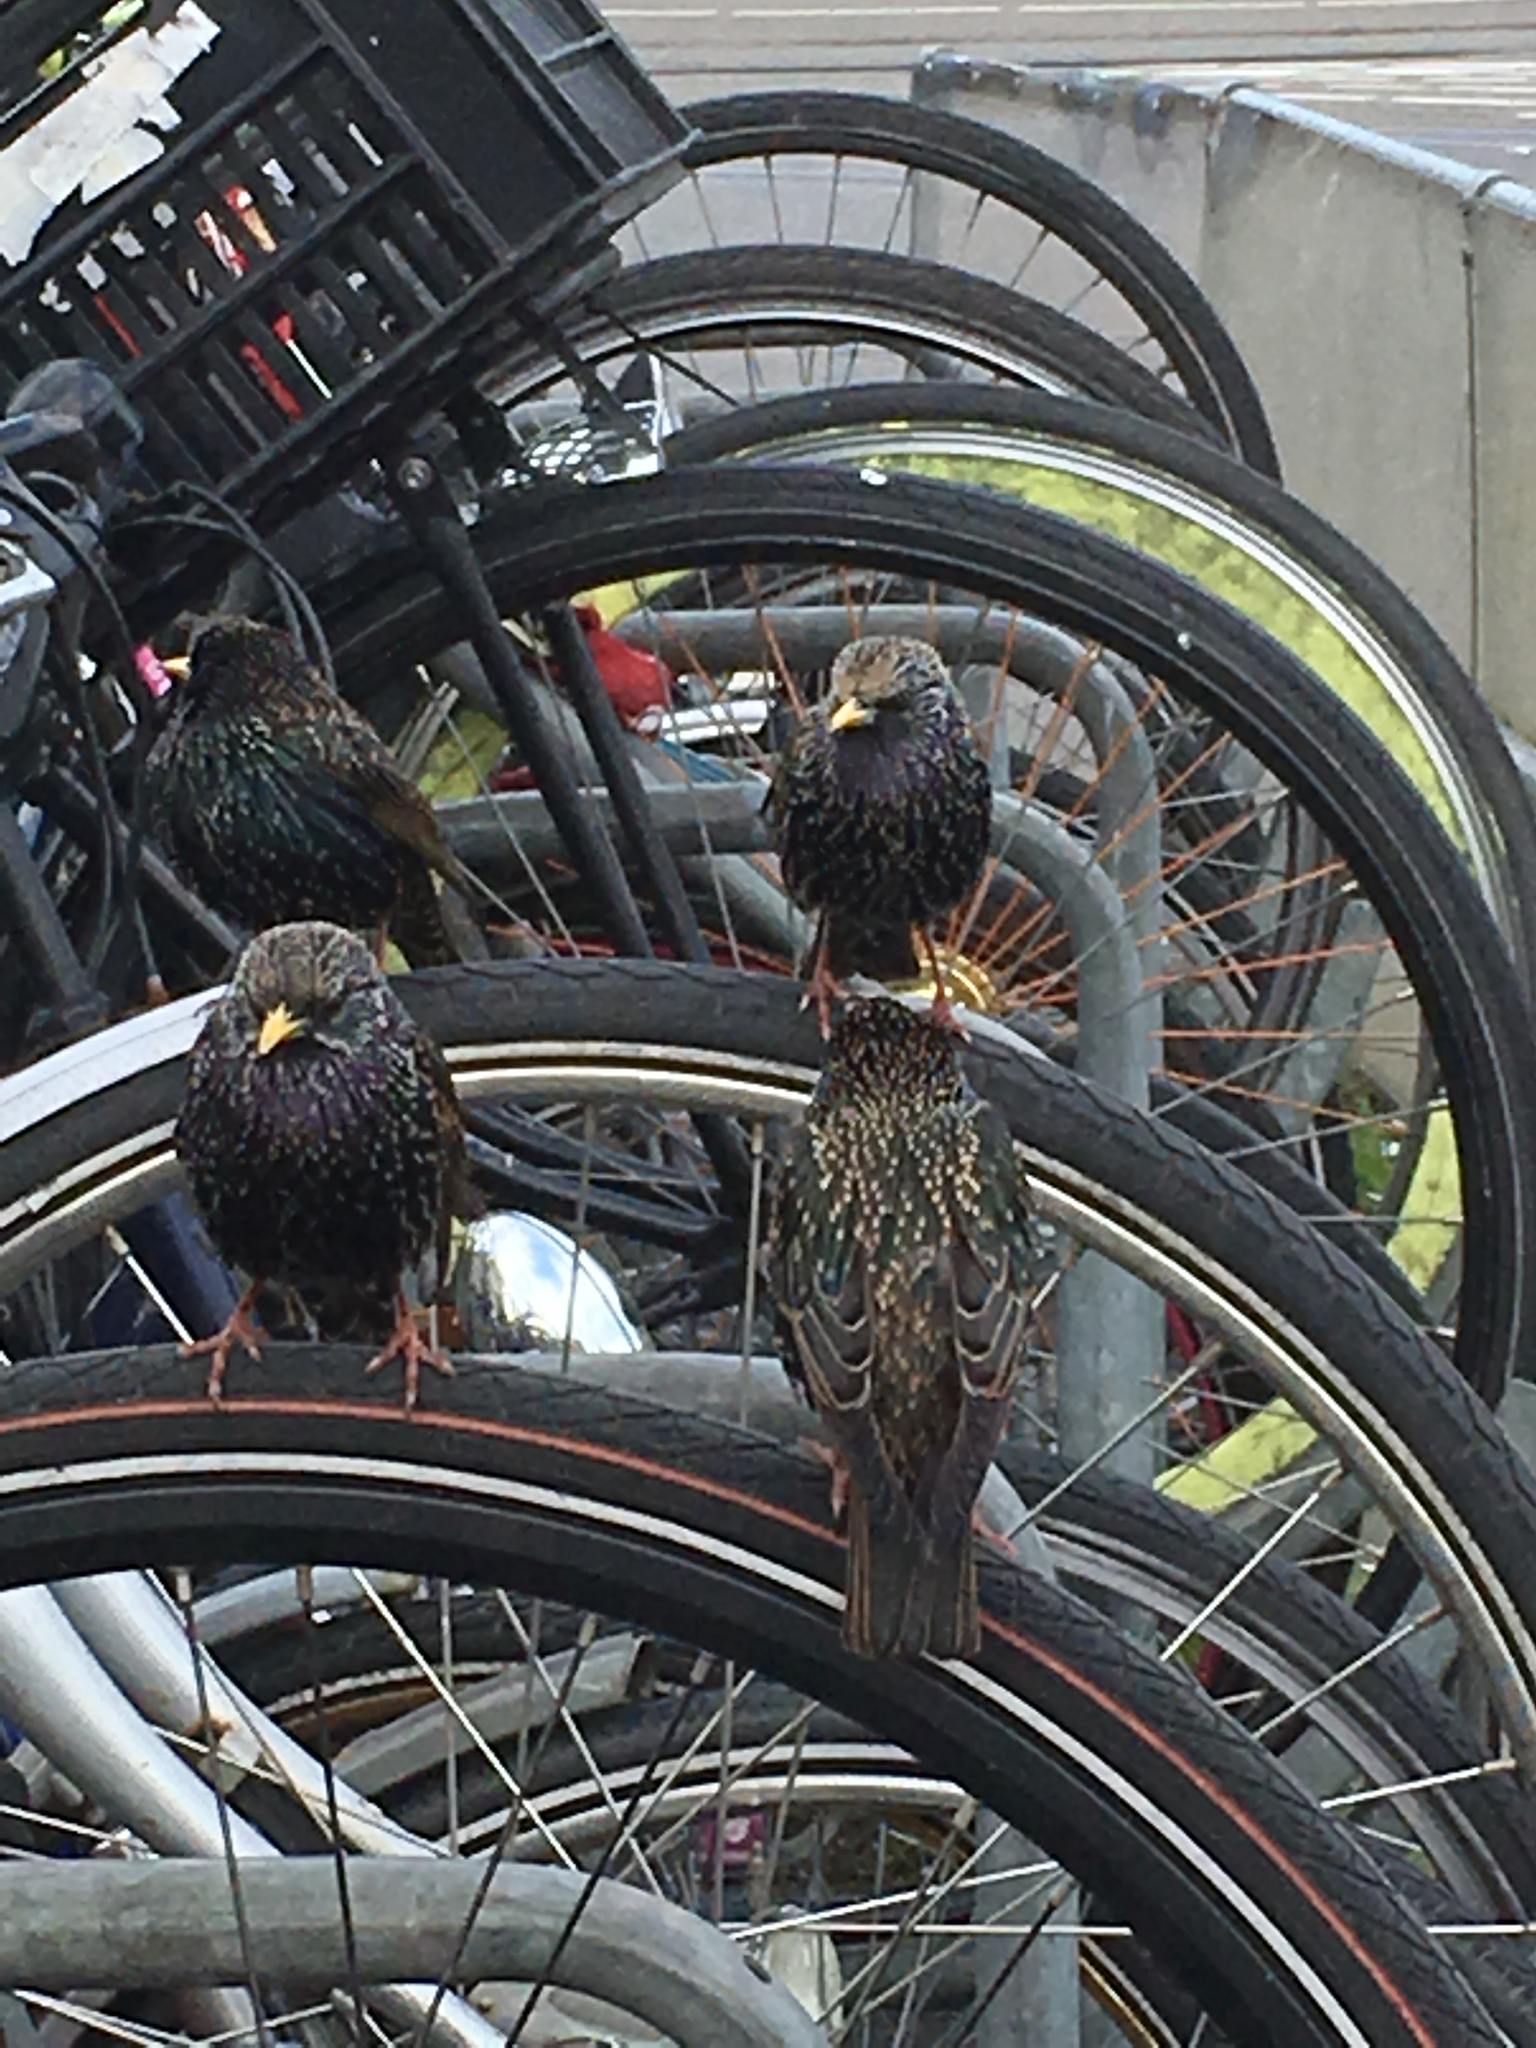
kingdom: Animalia
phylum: Chordata
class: Aves
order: Passeriformes
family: Sturnidae
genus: Sturnus
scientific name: Sturnus vulgaris
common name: Common starling
